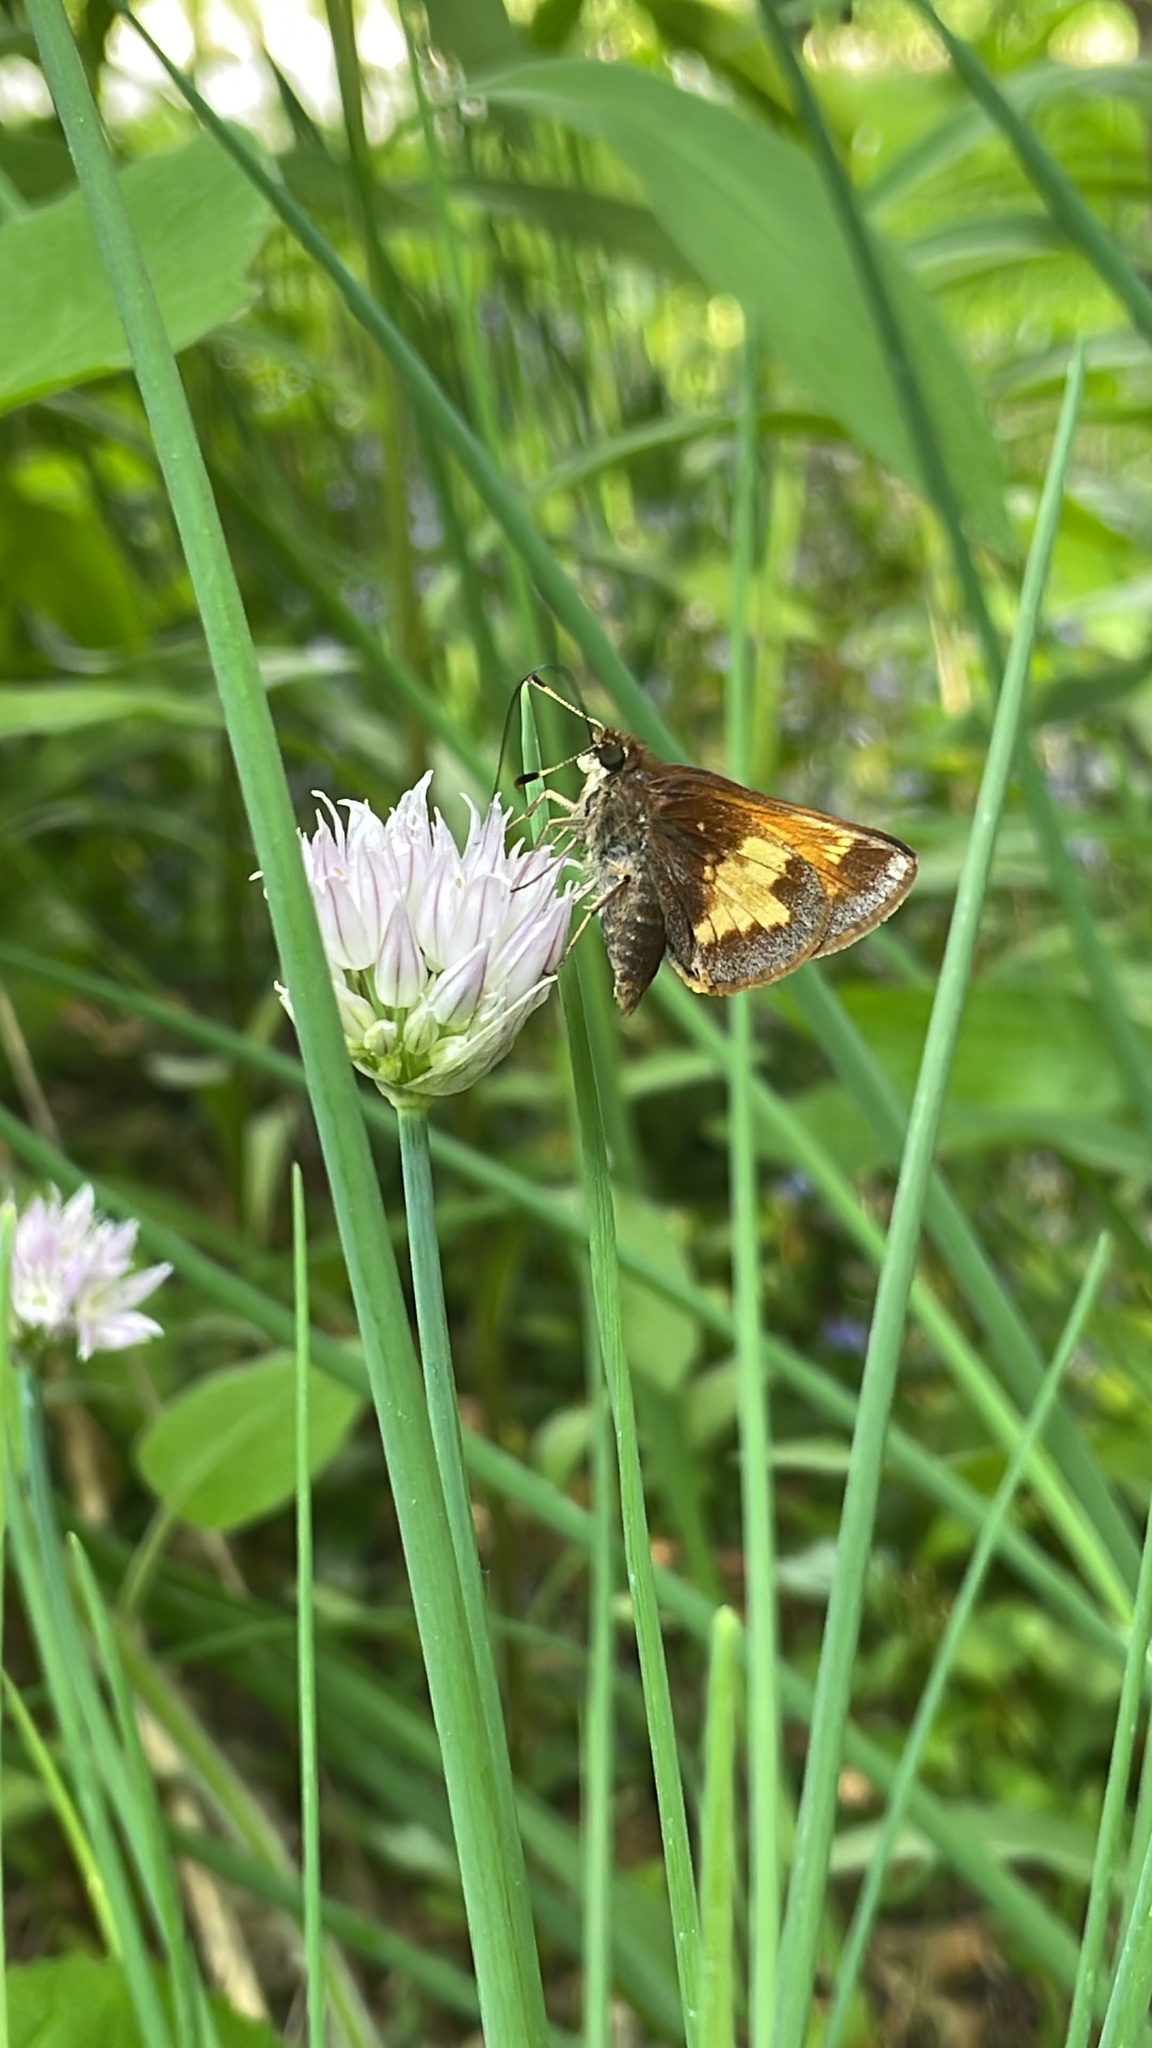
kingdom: Animalia
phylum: Arthropoda
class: Insecta
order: Lepidoptera
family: Hesperiidae
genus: Lon
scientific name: Lon hobomok
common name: Hobomok skipper
